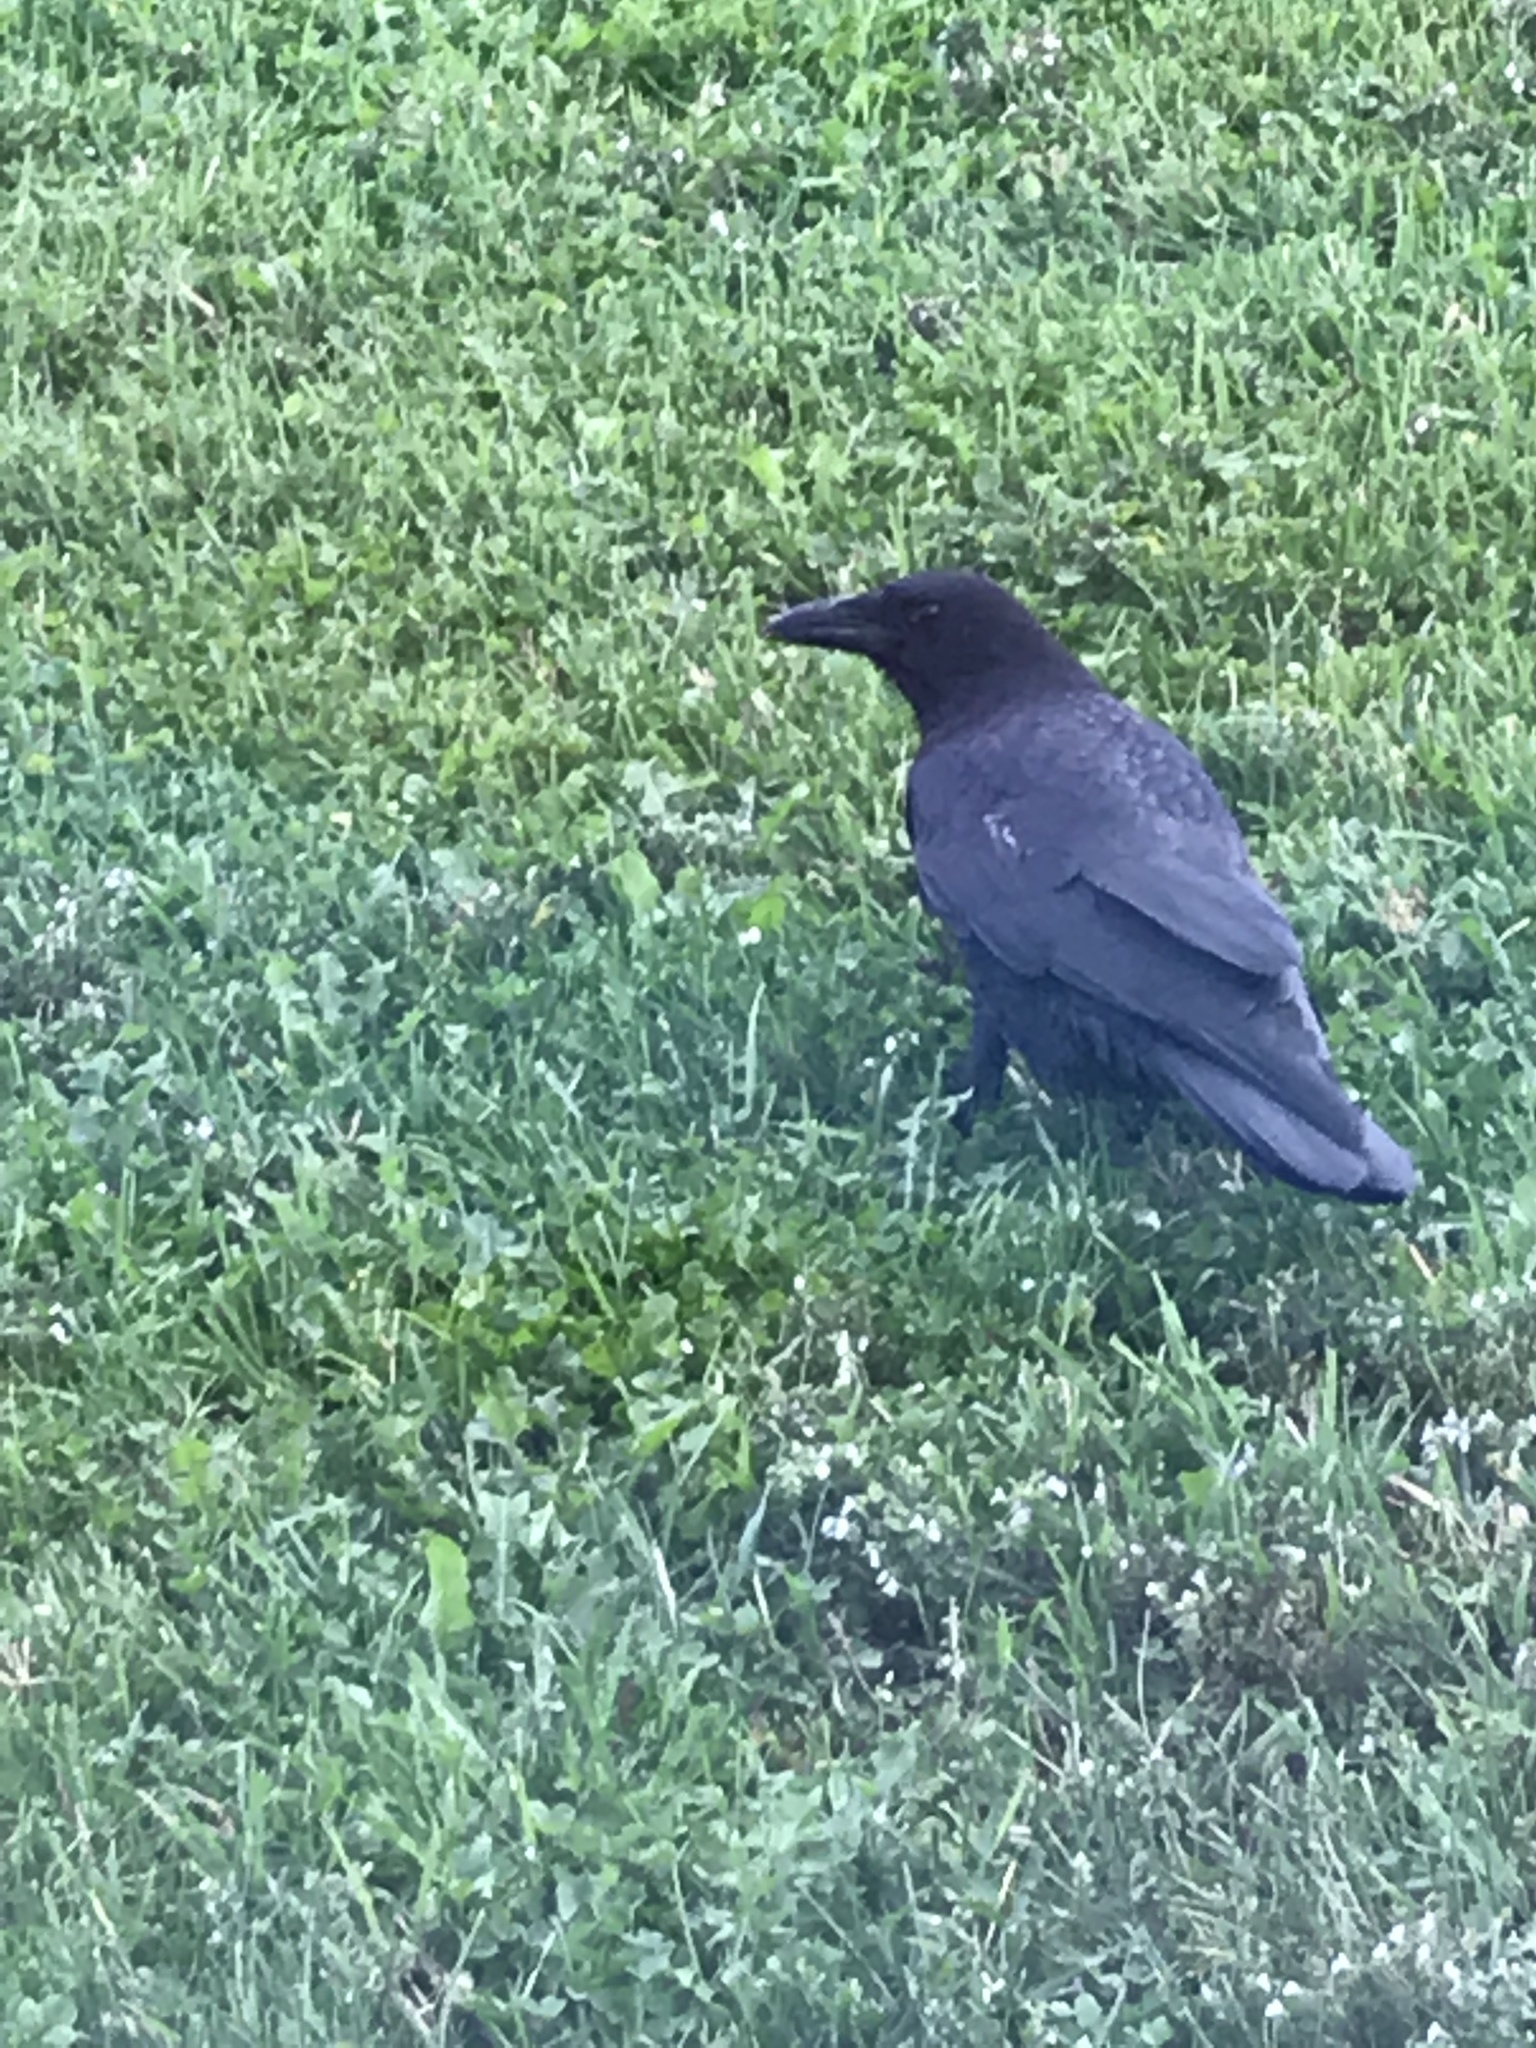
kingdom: Animalia
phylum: Chordata
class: Aves
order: Passeriformes
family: Corvidae
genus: Corvus
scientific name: Corvus brachyrhynchos
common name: American crow
